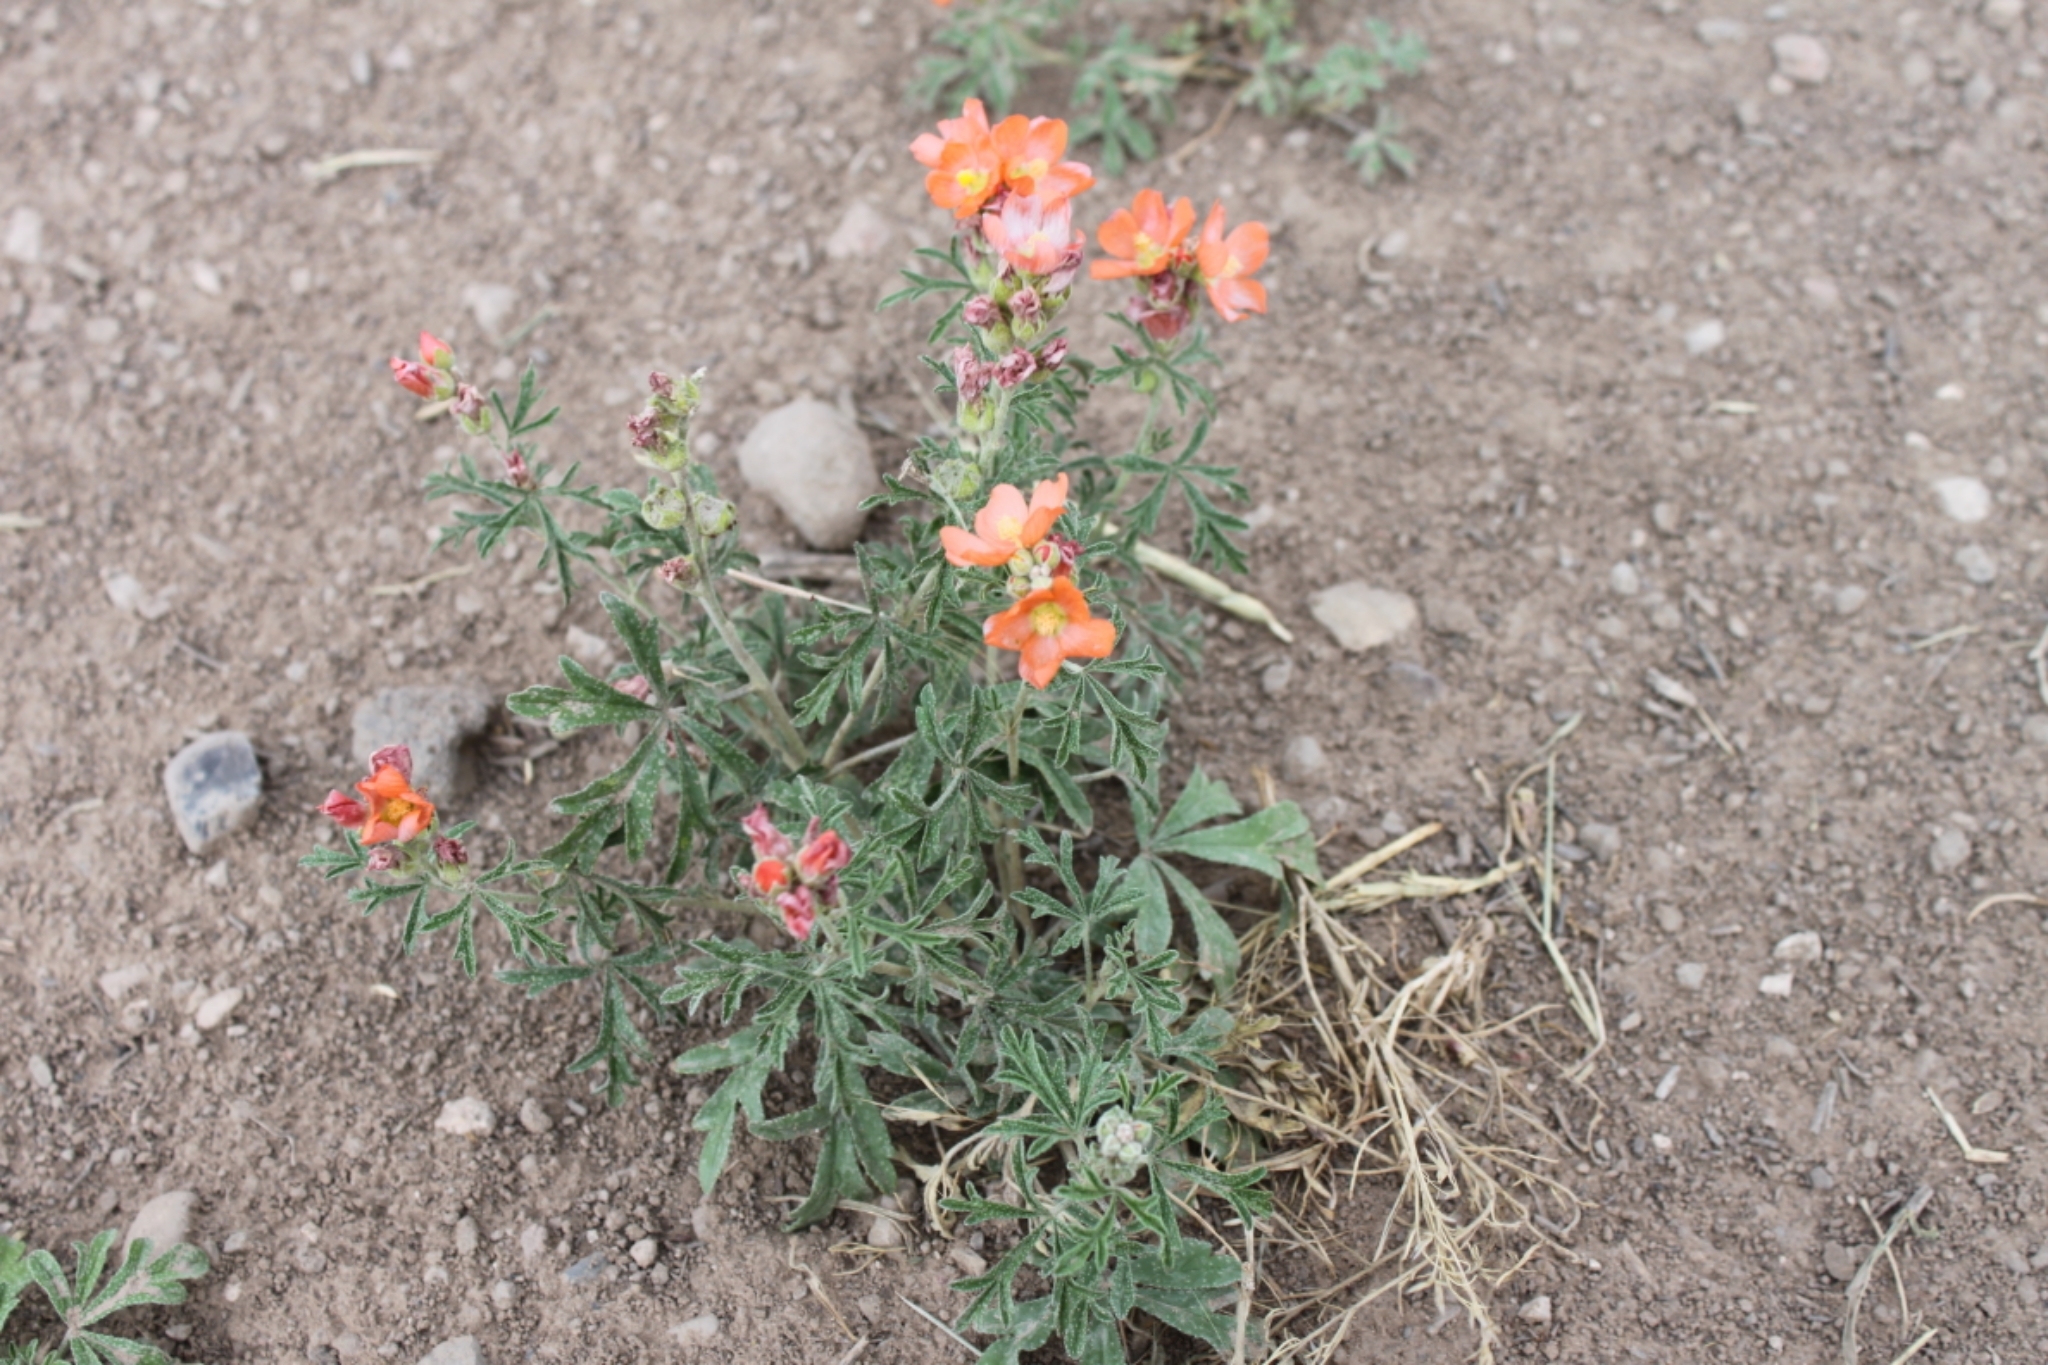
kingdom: Plantae
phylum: Tracheophyta
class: Magnoliopsida
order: Malvales
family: Malvaceae
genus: Sphaeralcea
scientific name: Sphaeralcea coccinea
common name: Moss-rose
